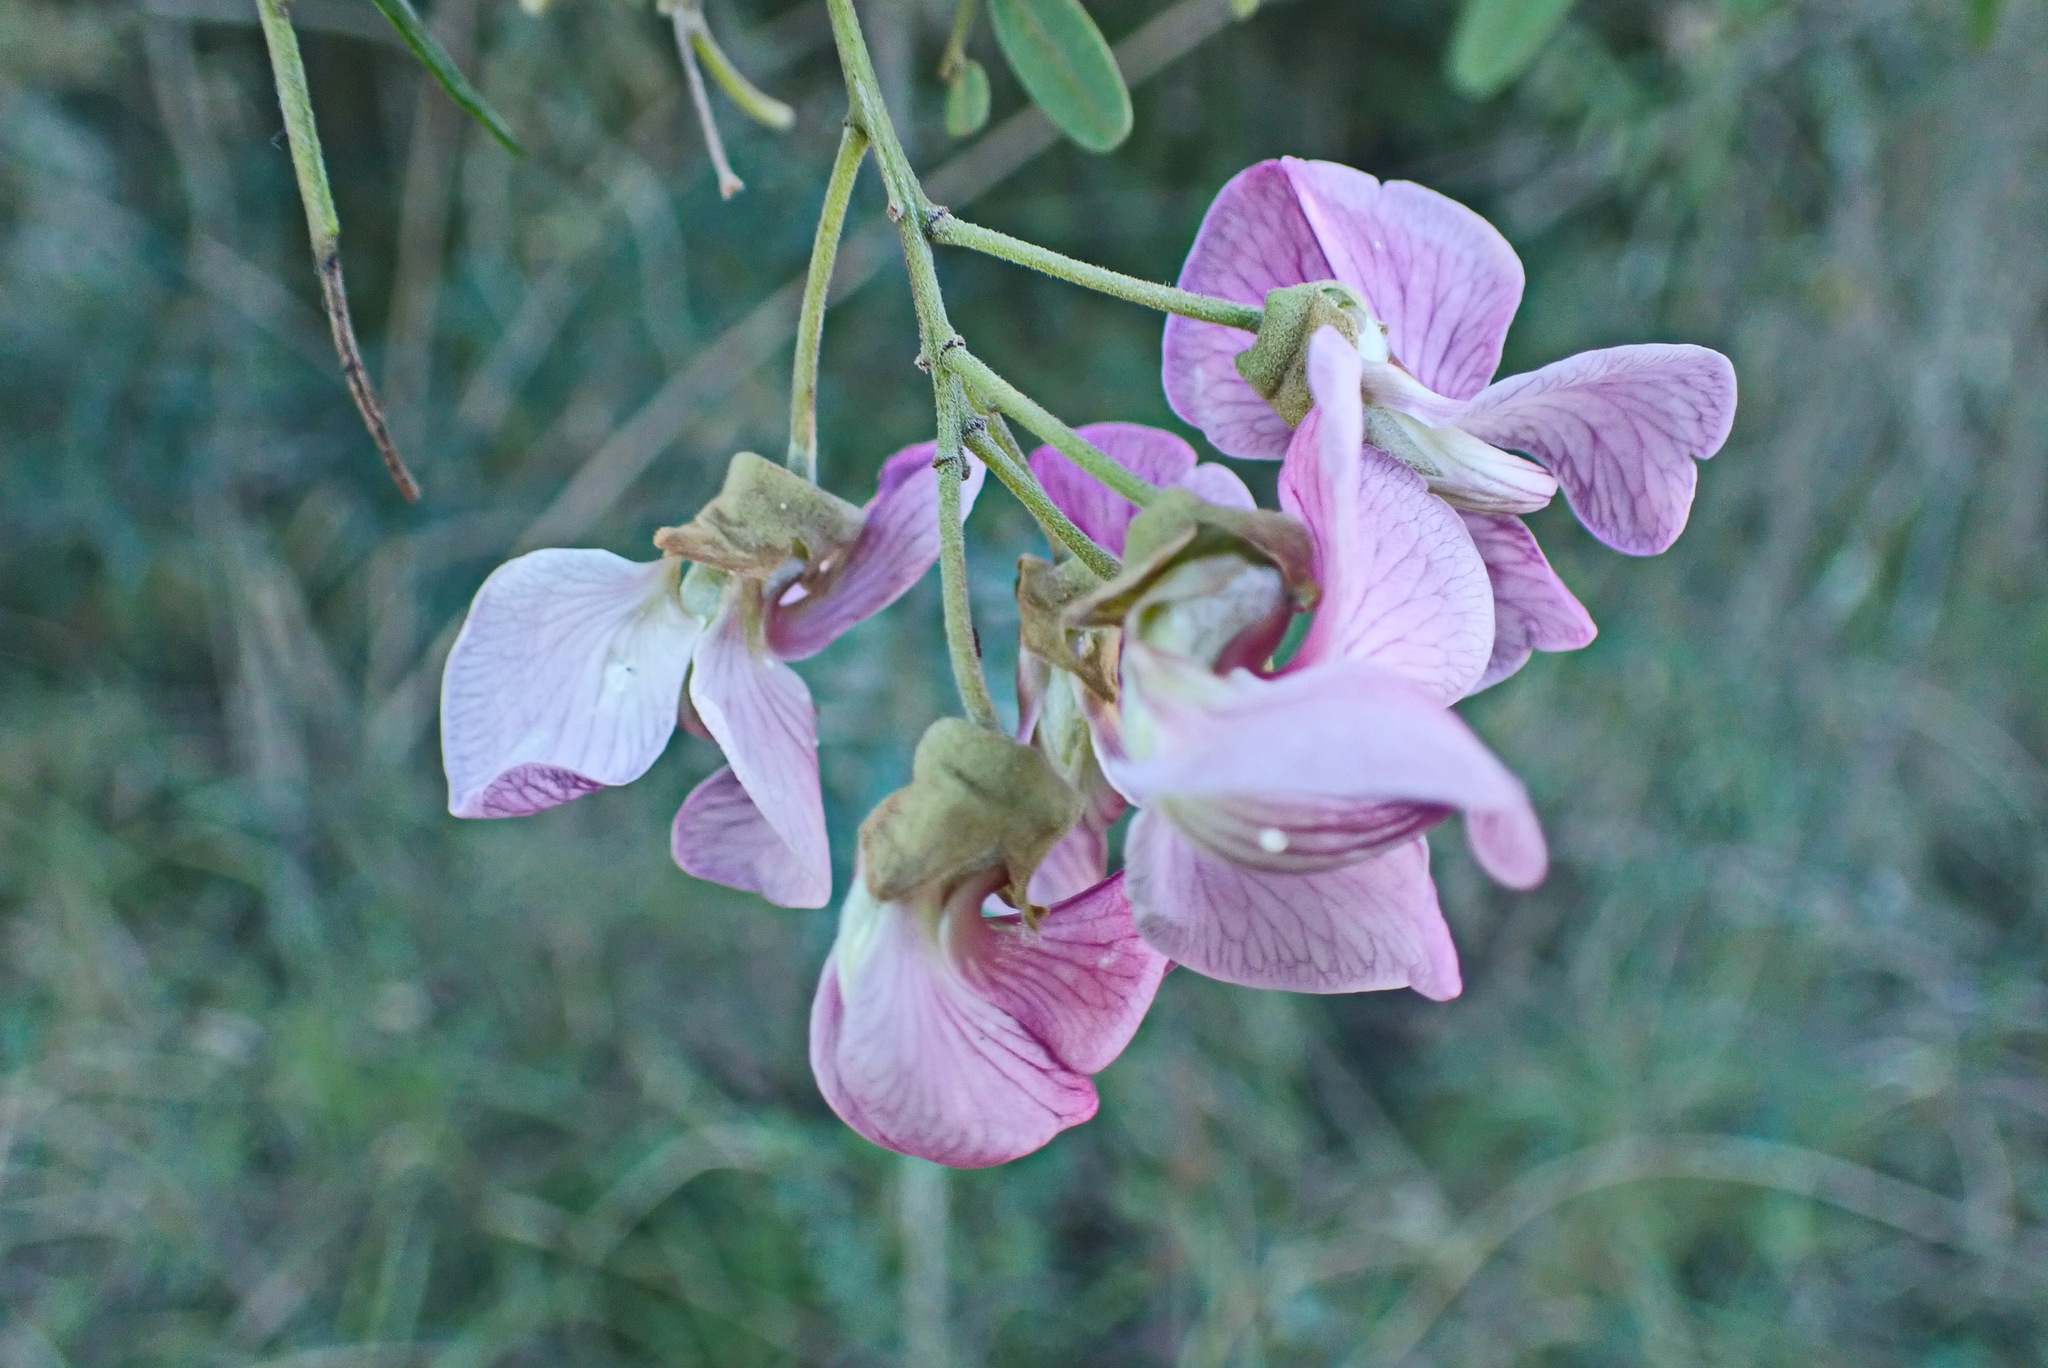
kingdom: Plantae
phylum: Tracheophyta
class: Magnoliopsida
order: Fabales
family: Fabaceae
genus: Virgilia
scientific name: Virgilia divaricata
